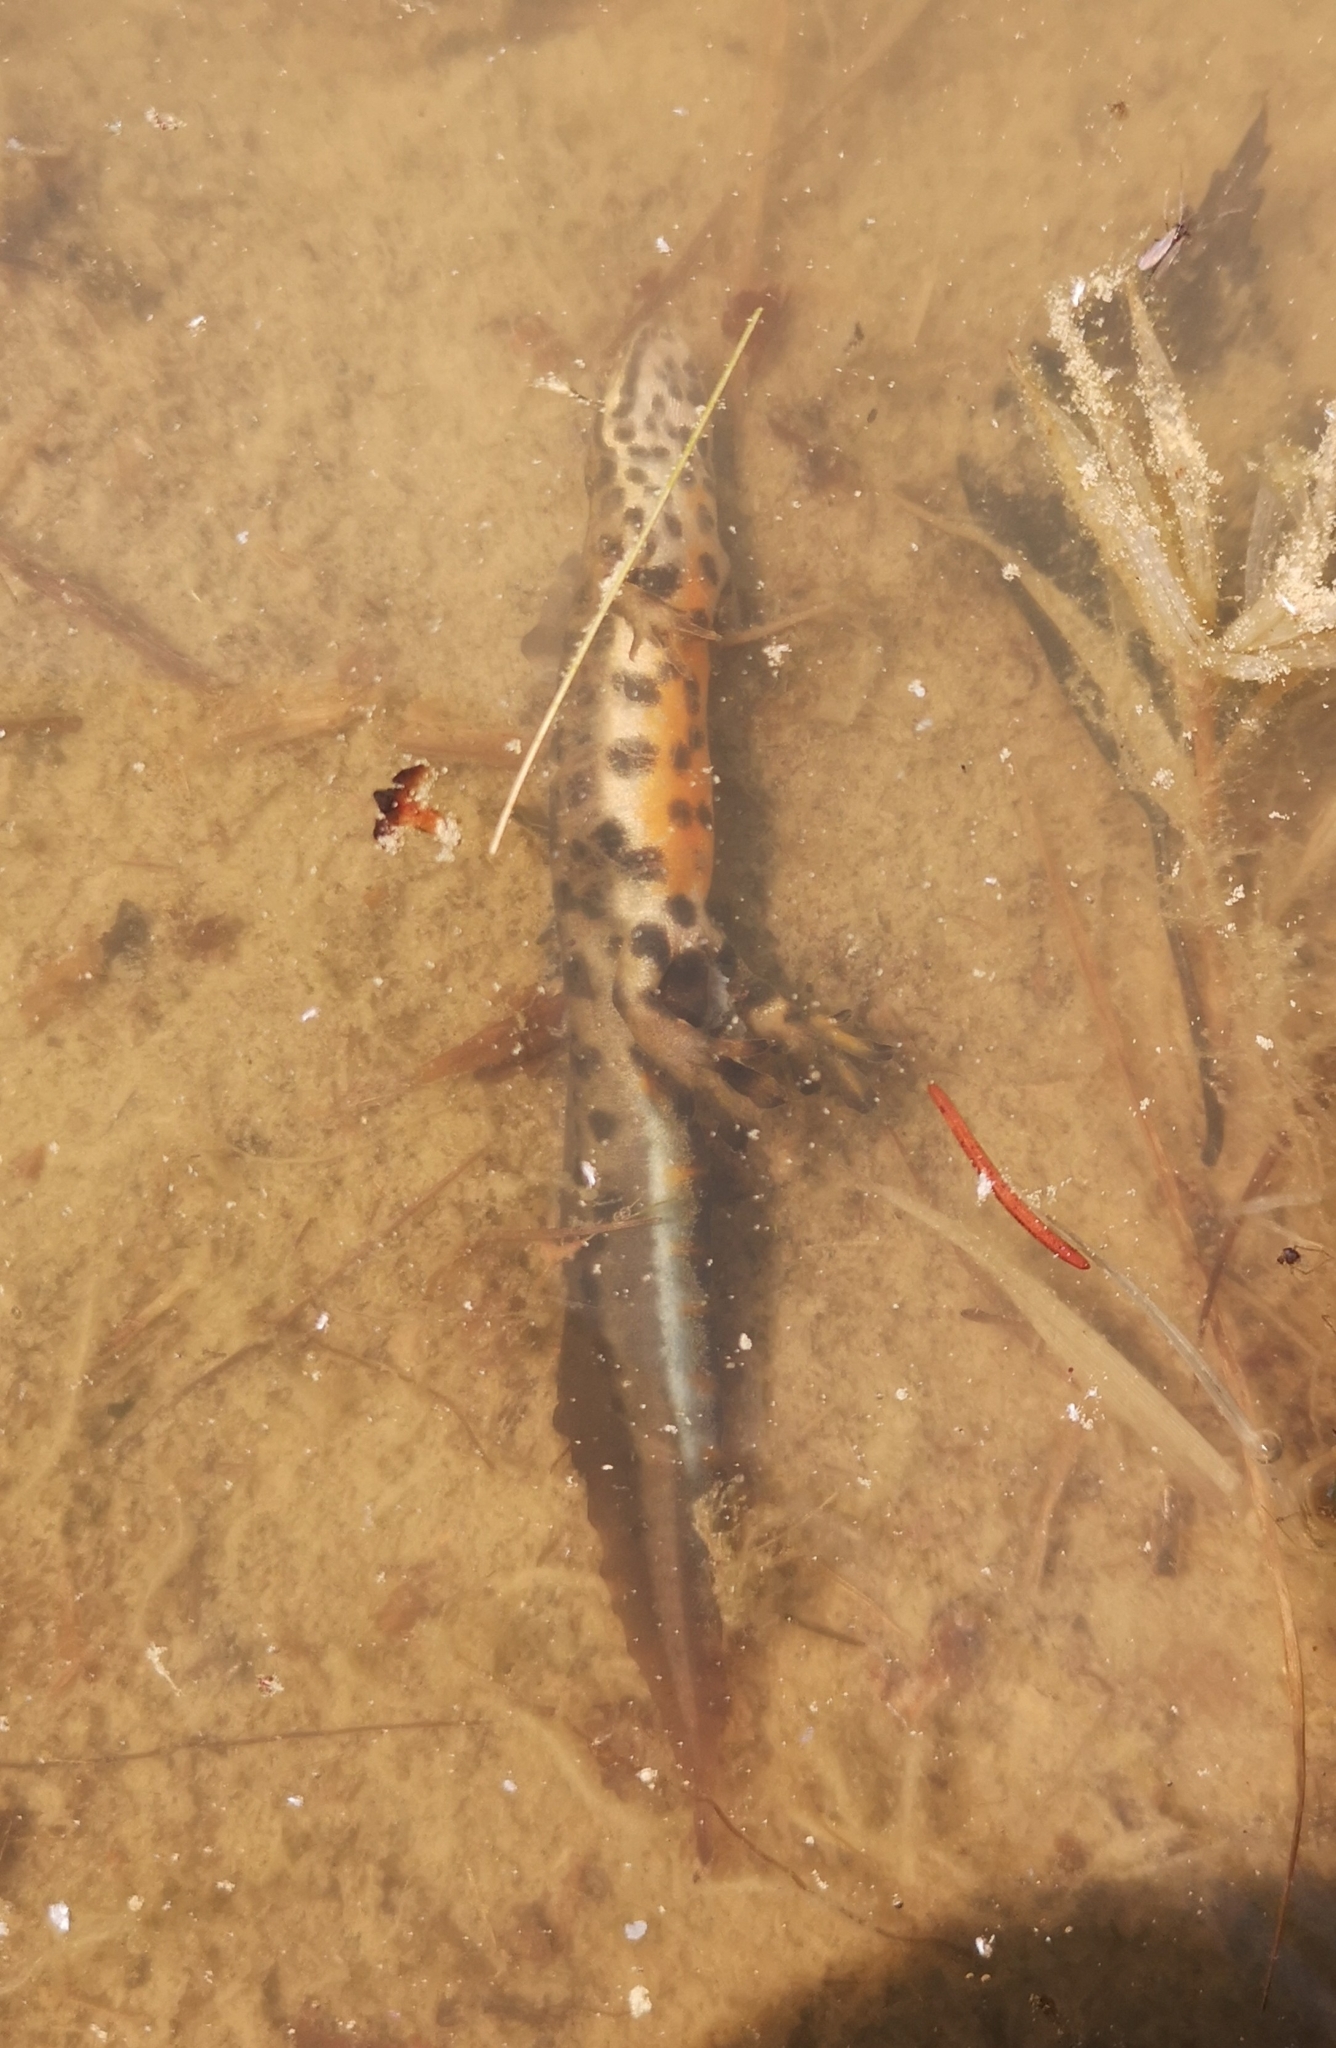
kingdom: Animalia
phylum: Chordata
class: Amphibia
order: Caudata
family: Salamandridae
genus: Lissotriton
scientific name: Lissotriton vulgaris
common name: Smooth newt
